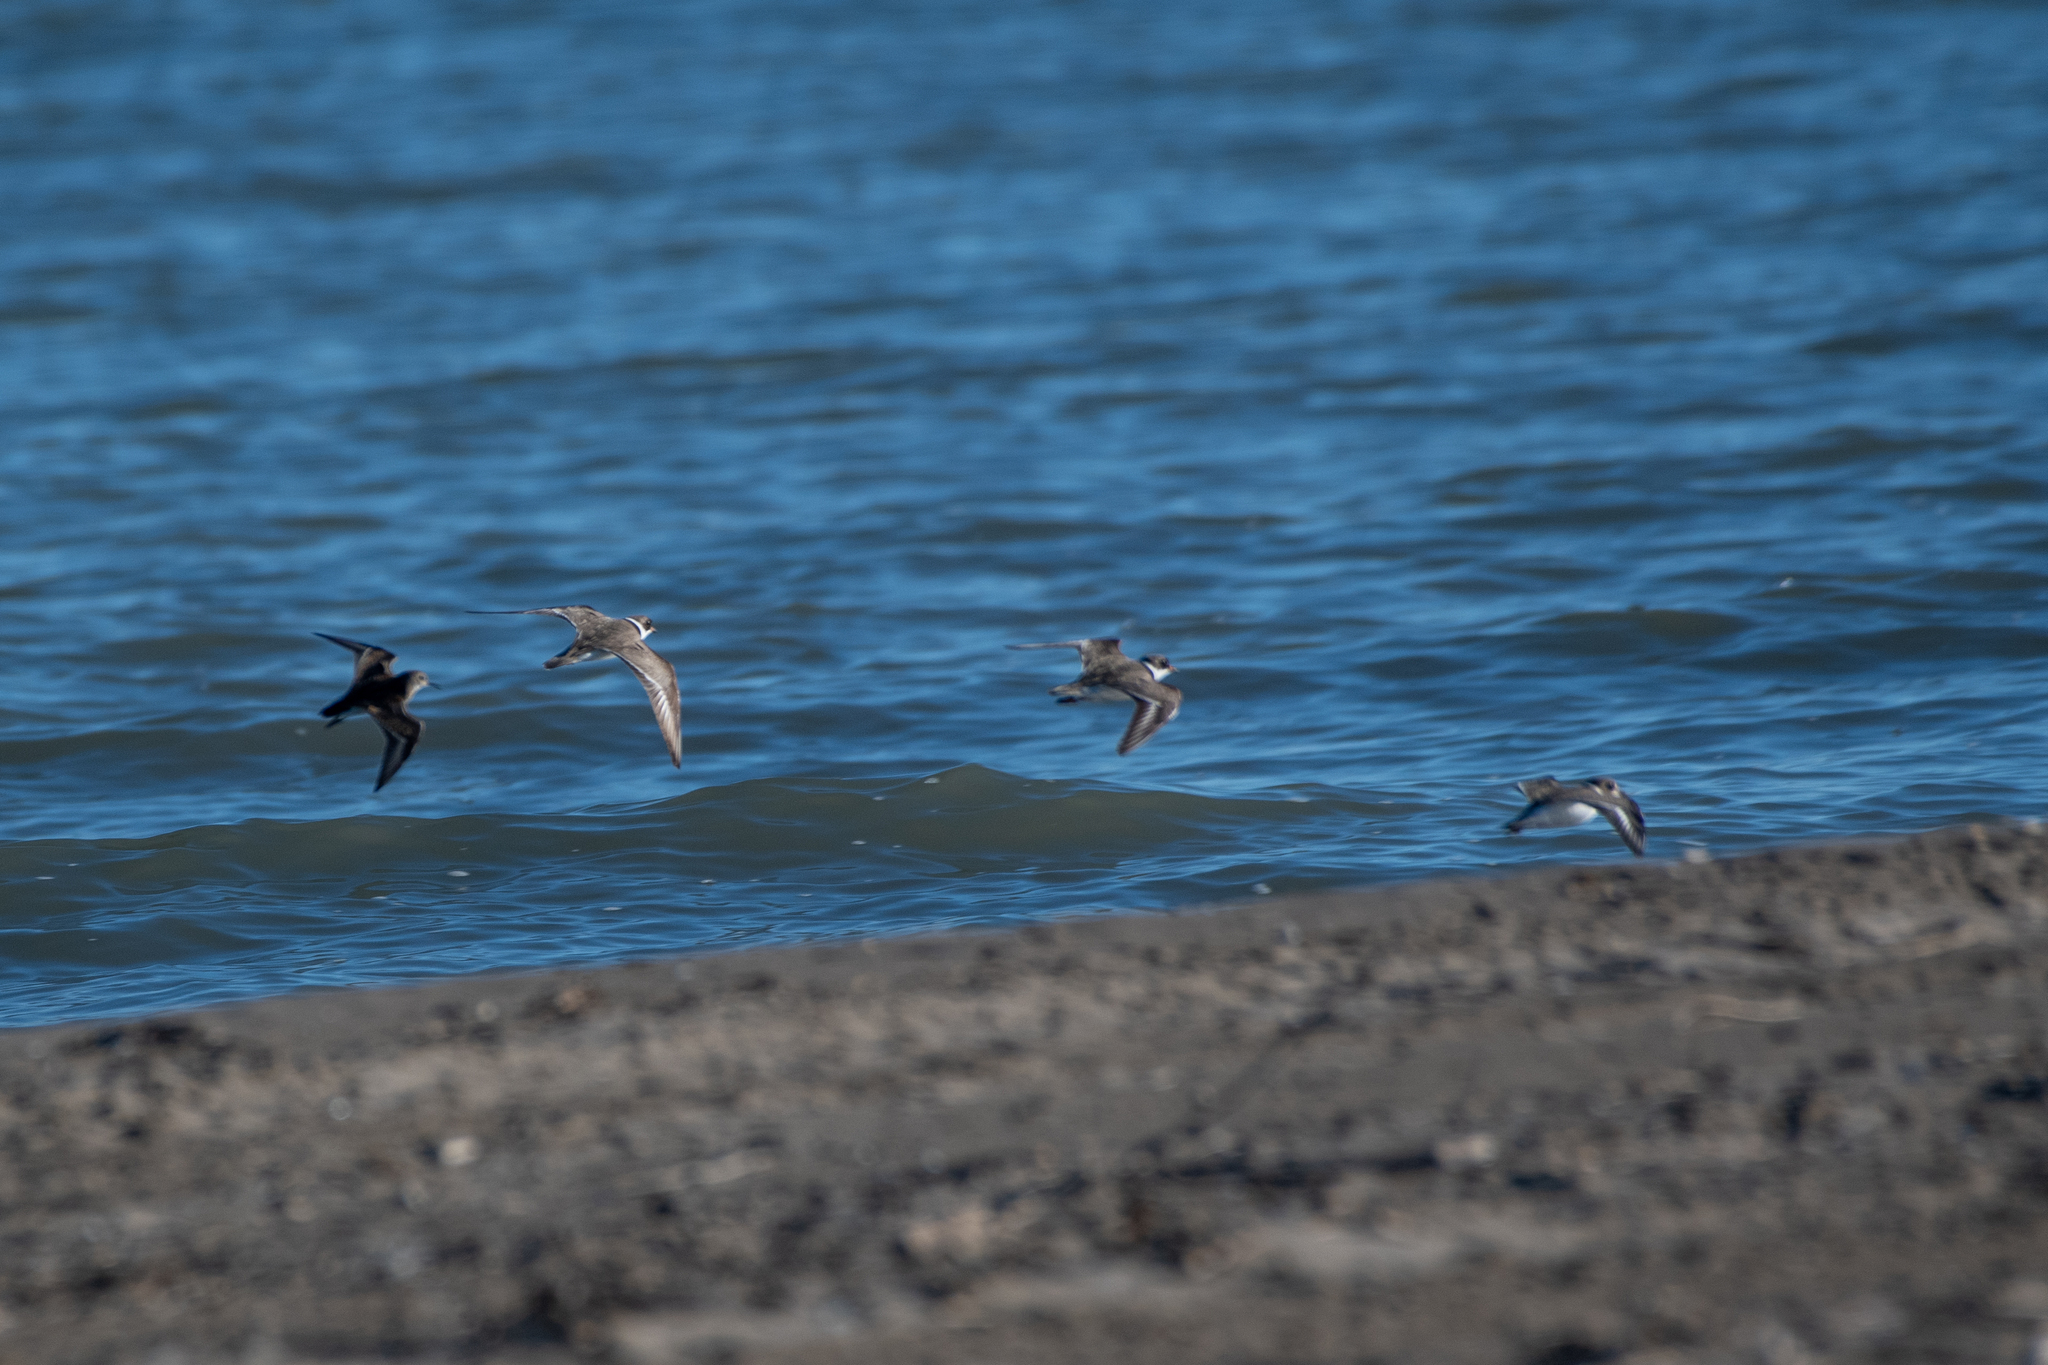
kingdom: Animalia
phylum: Chordata
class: Aves
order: Charadriiformes
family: Charadriidae
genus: Charadrius
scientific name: Charadrius semipalmatus
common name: Semipalmated plover
